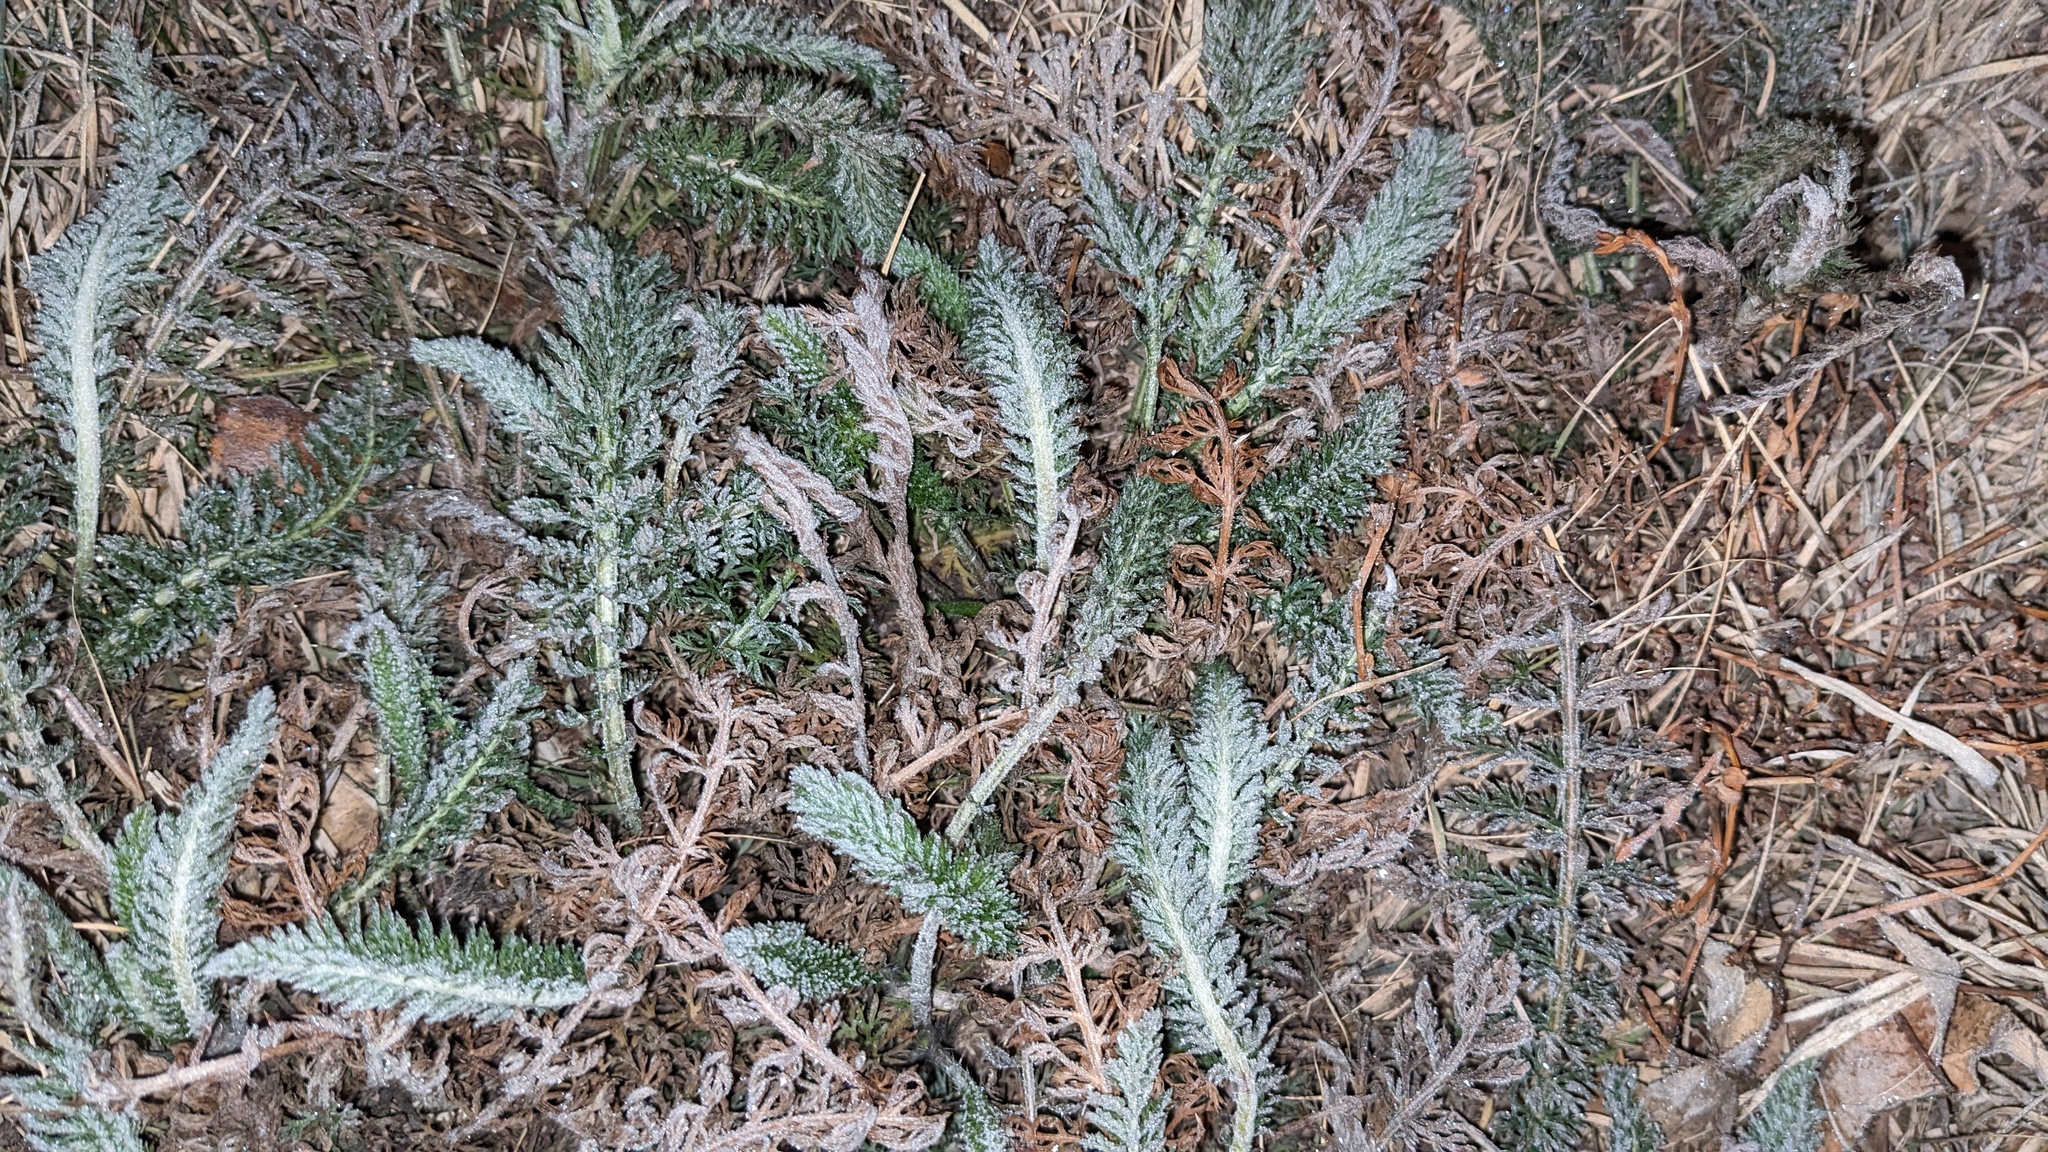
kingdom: Plantae
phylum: Tracheophyta
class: Magnoliopsida
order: Asterales
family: Asteraceae
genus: Achillea
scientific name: Achillea millefolium
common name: Yarrow
